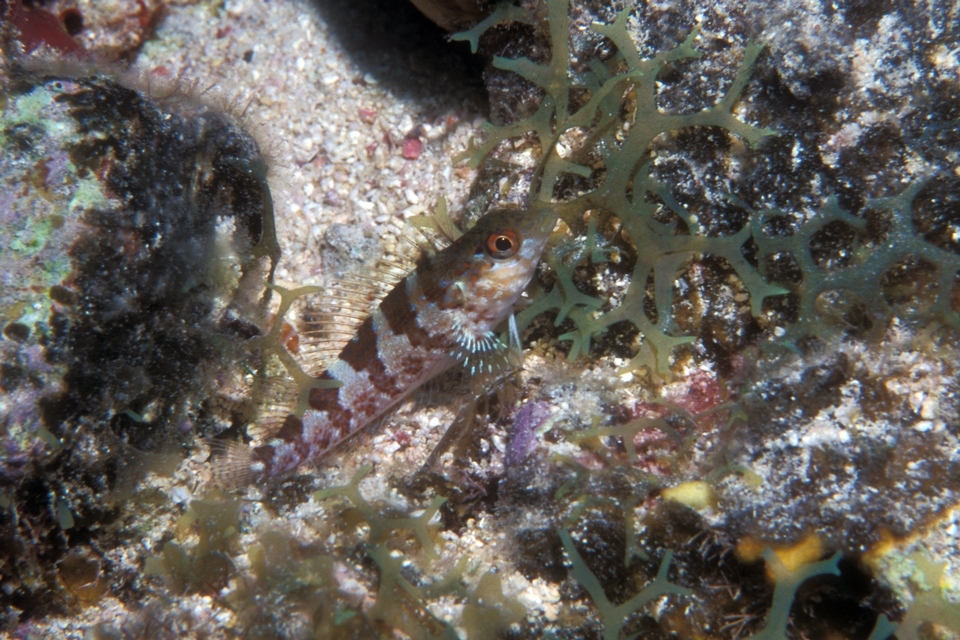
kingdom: Animalia
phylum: Chordata
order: Perciformes
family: Labrisomidae
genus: Malacoctenus
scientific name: Malacoctenus triangulatus
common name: Saddled blenny
